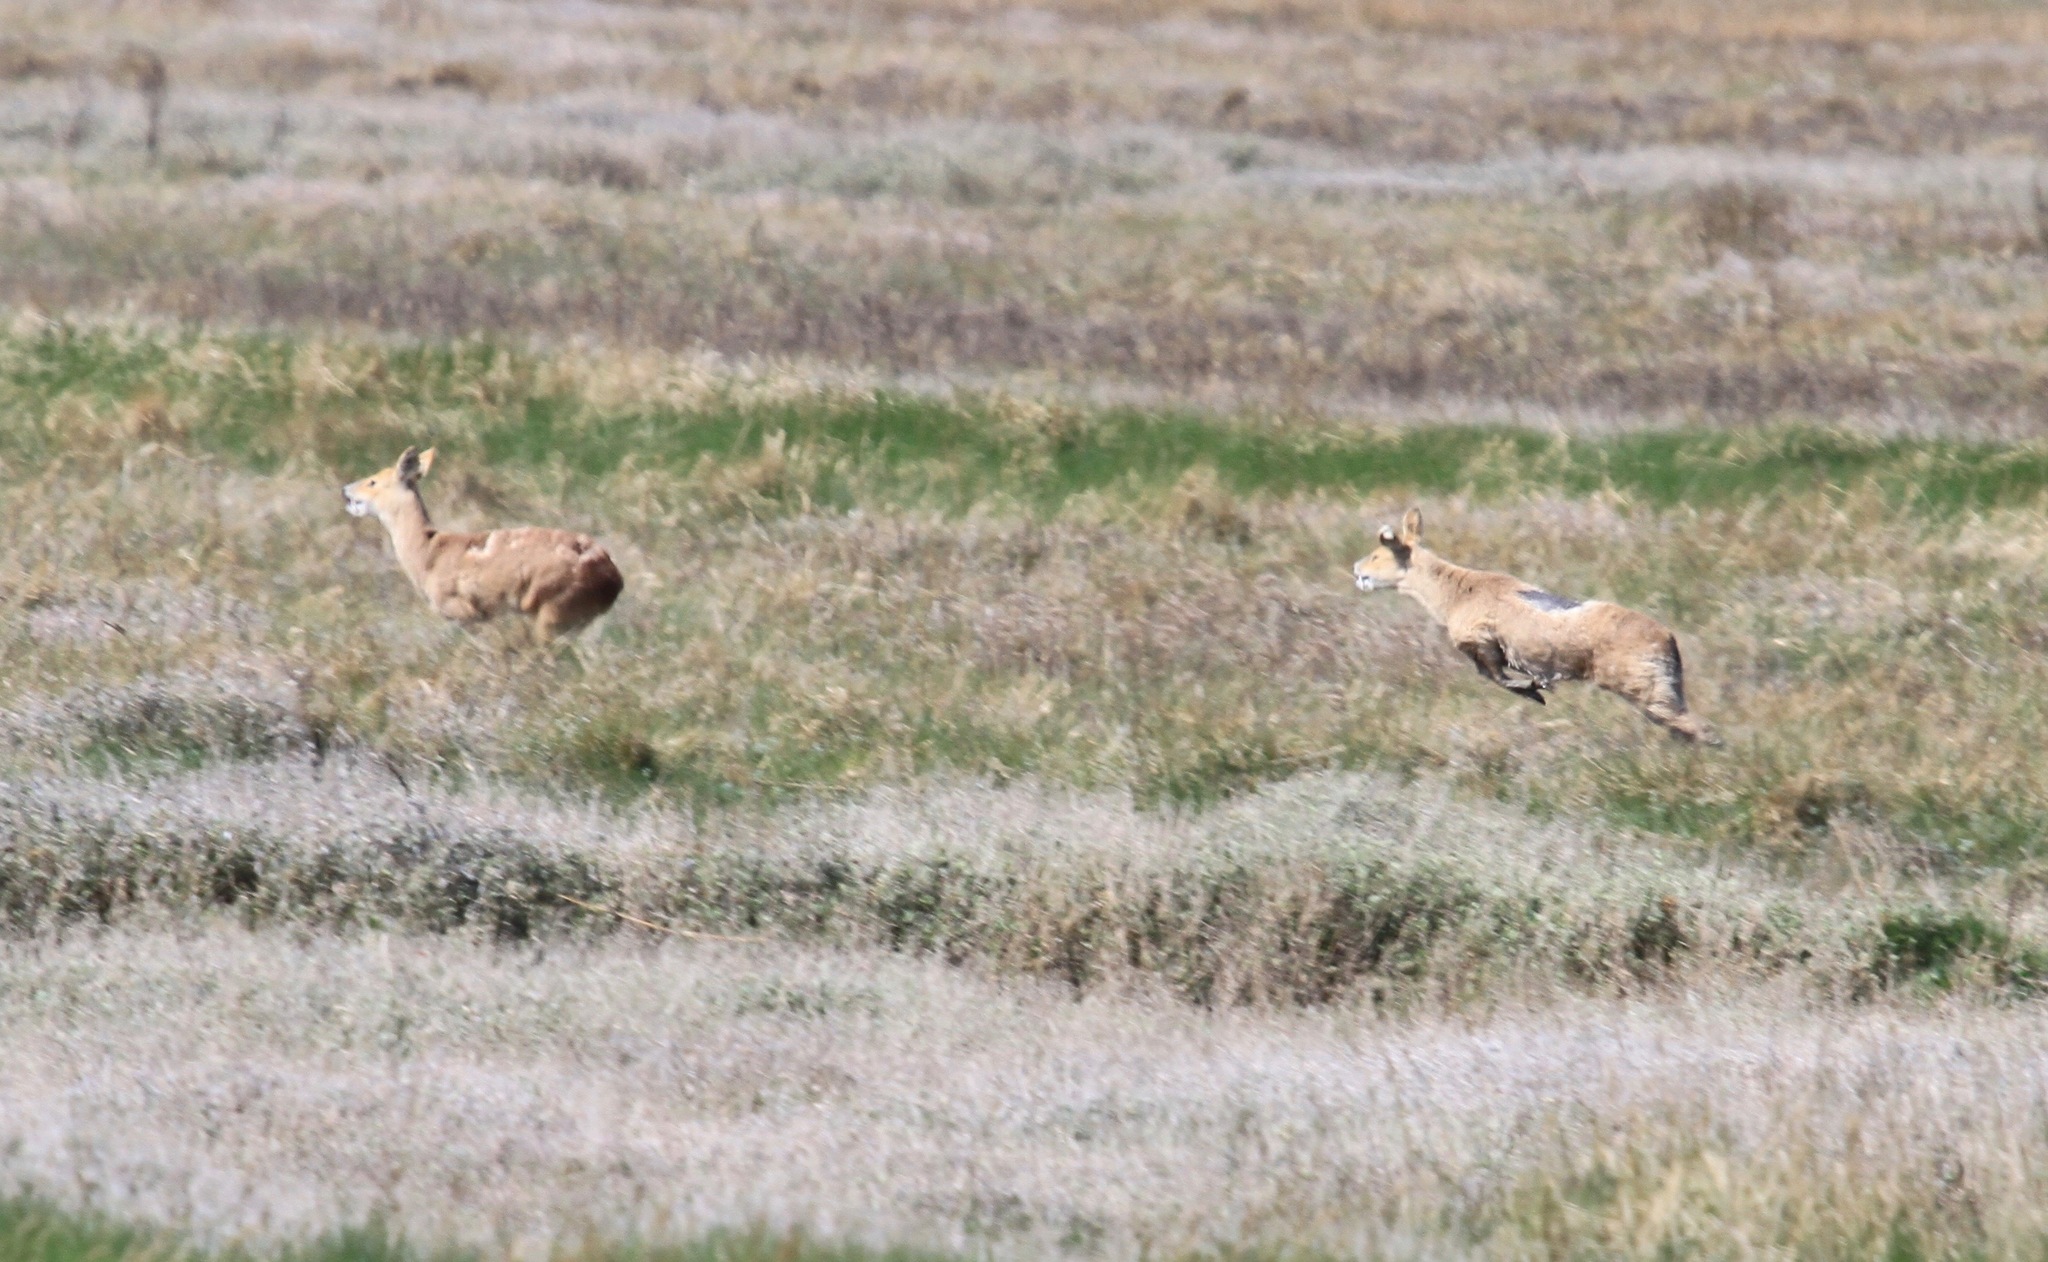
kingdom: Animalia
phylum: Chordata
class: Mammalia
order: Artiodactyla
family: Cervidae
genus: Hydropotes
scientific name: Hydropotes inermis
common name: Chinese water deer
